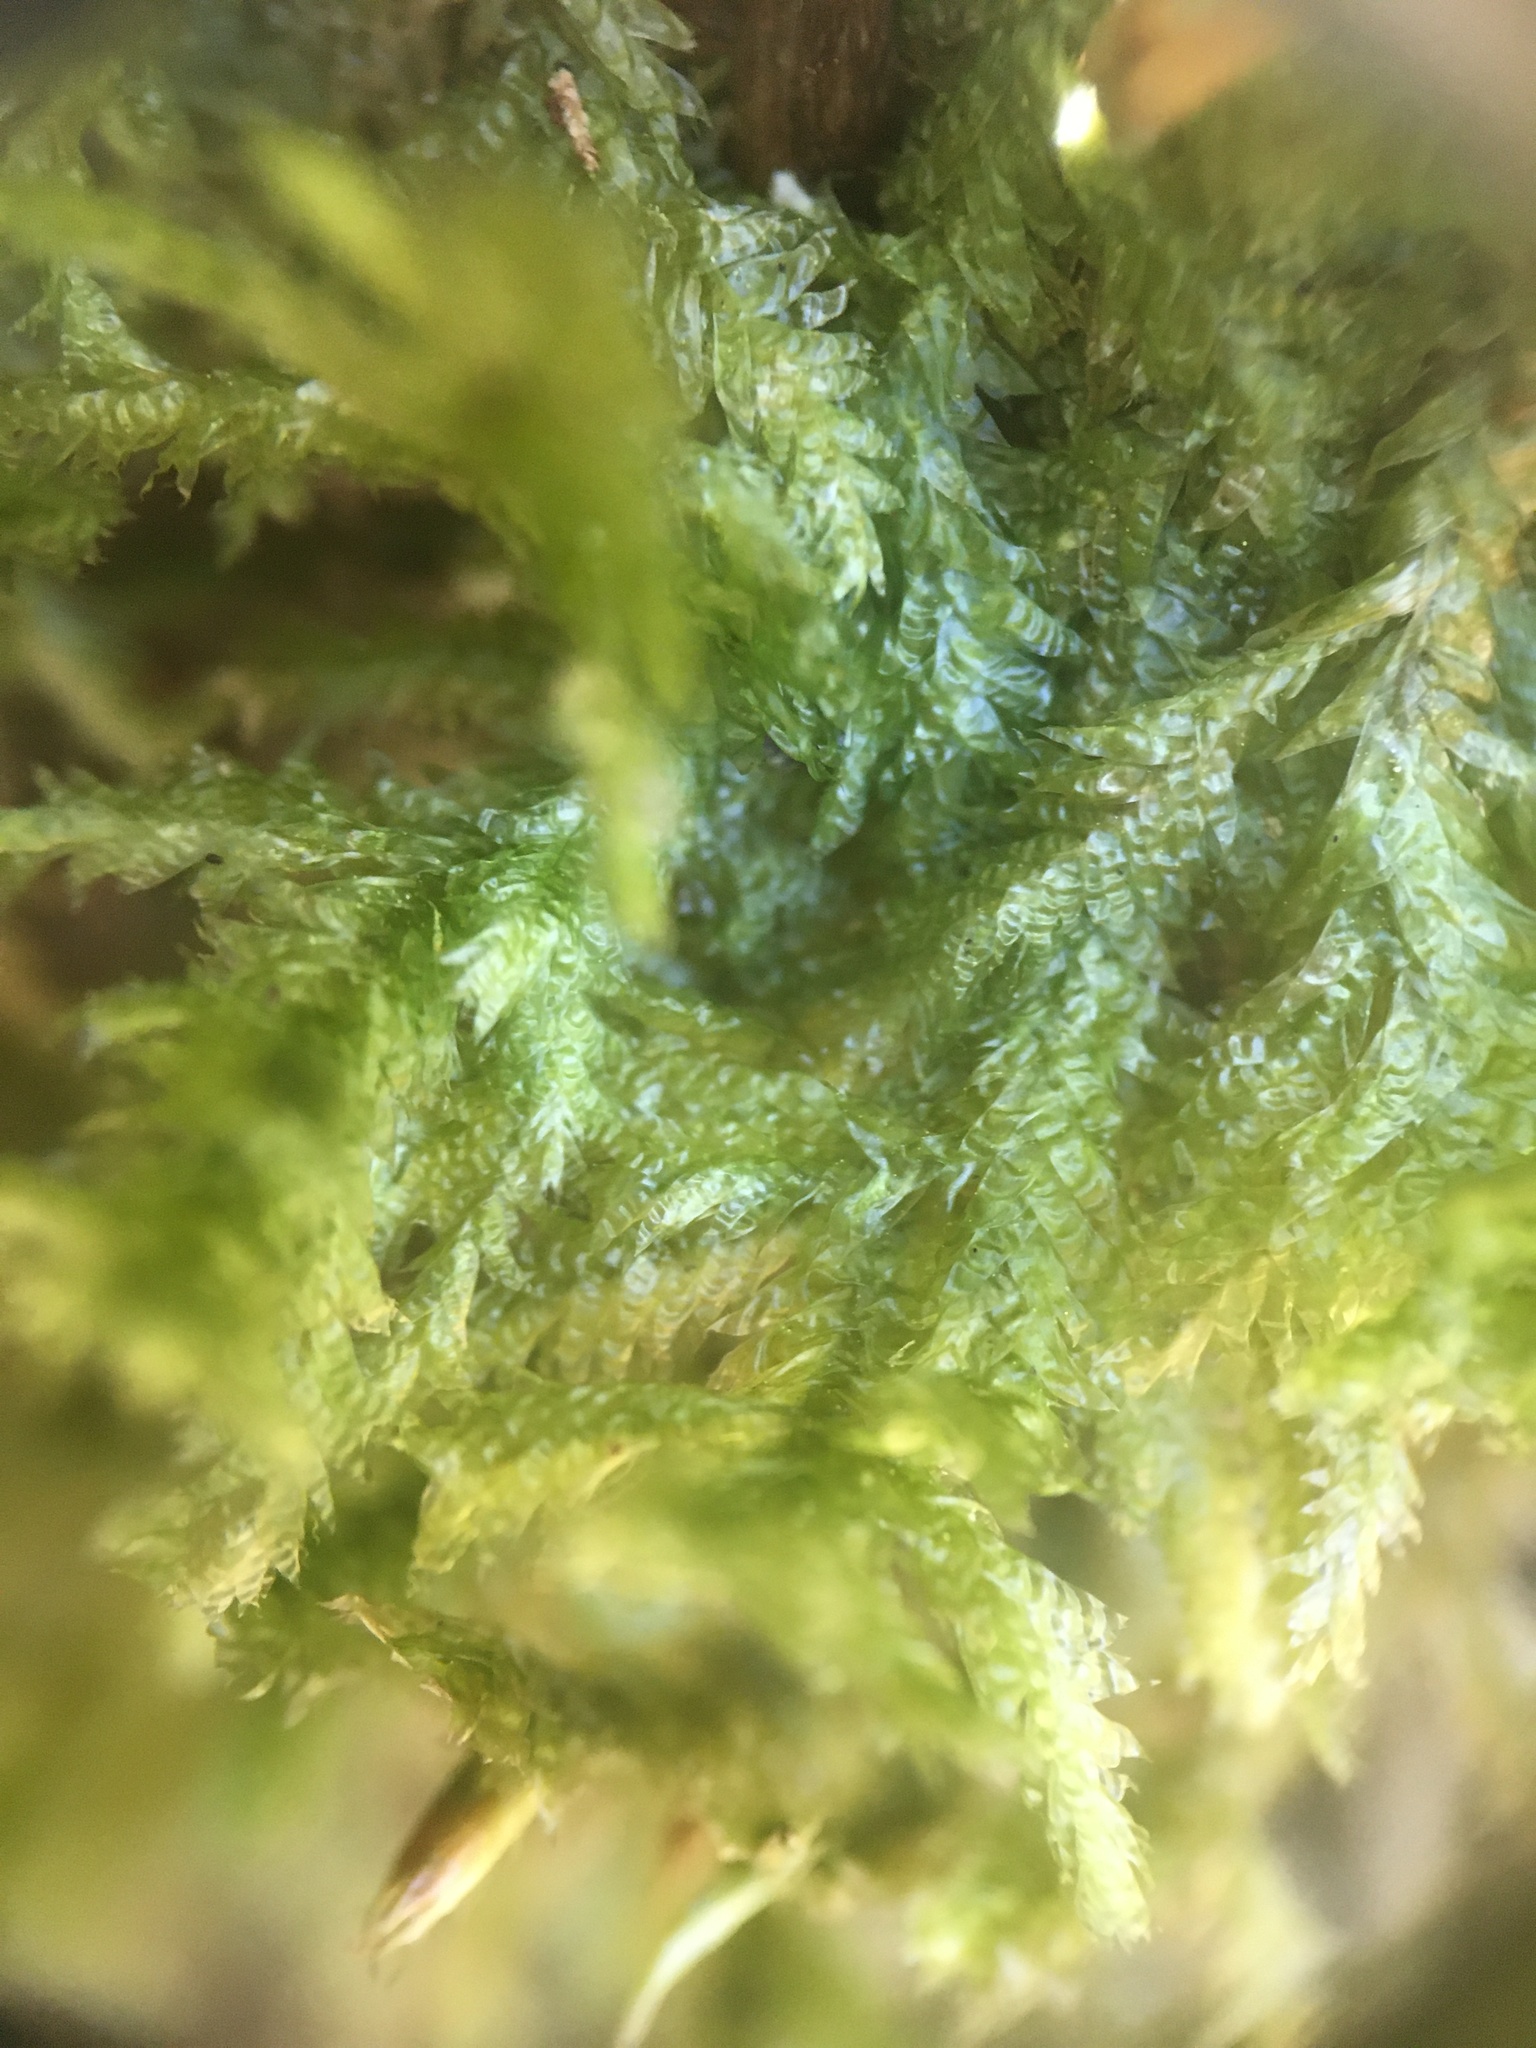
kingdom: Plantae
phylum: Bryophyta
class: Bryopsida
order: Hypnales
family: Neckeraceae
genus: Neckera
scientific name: Neckera pennata
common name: Feathery neckera
